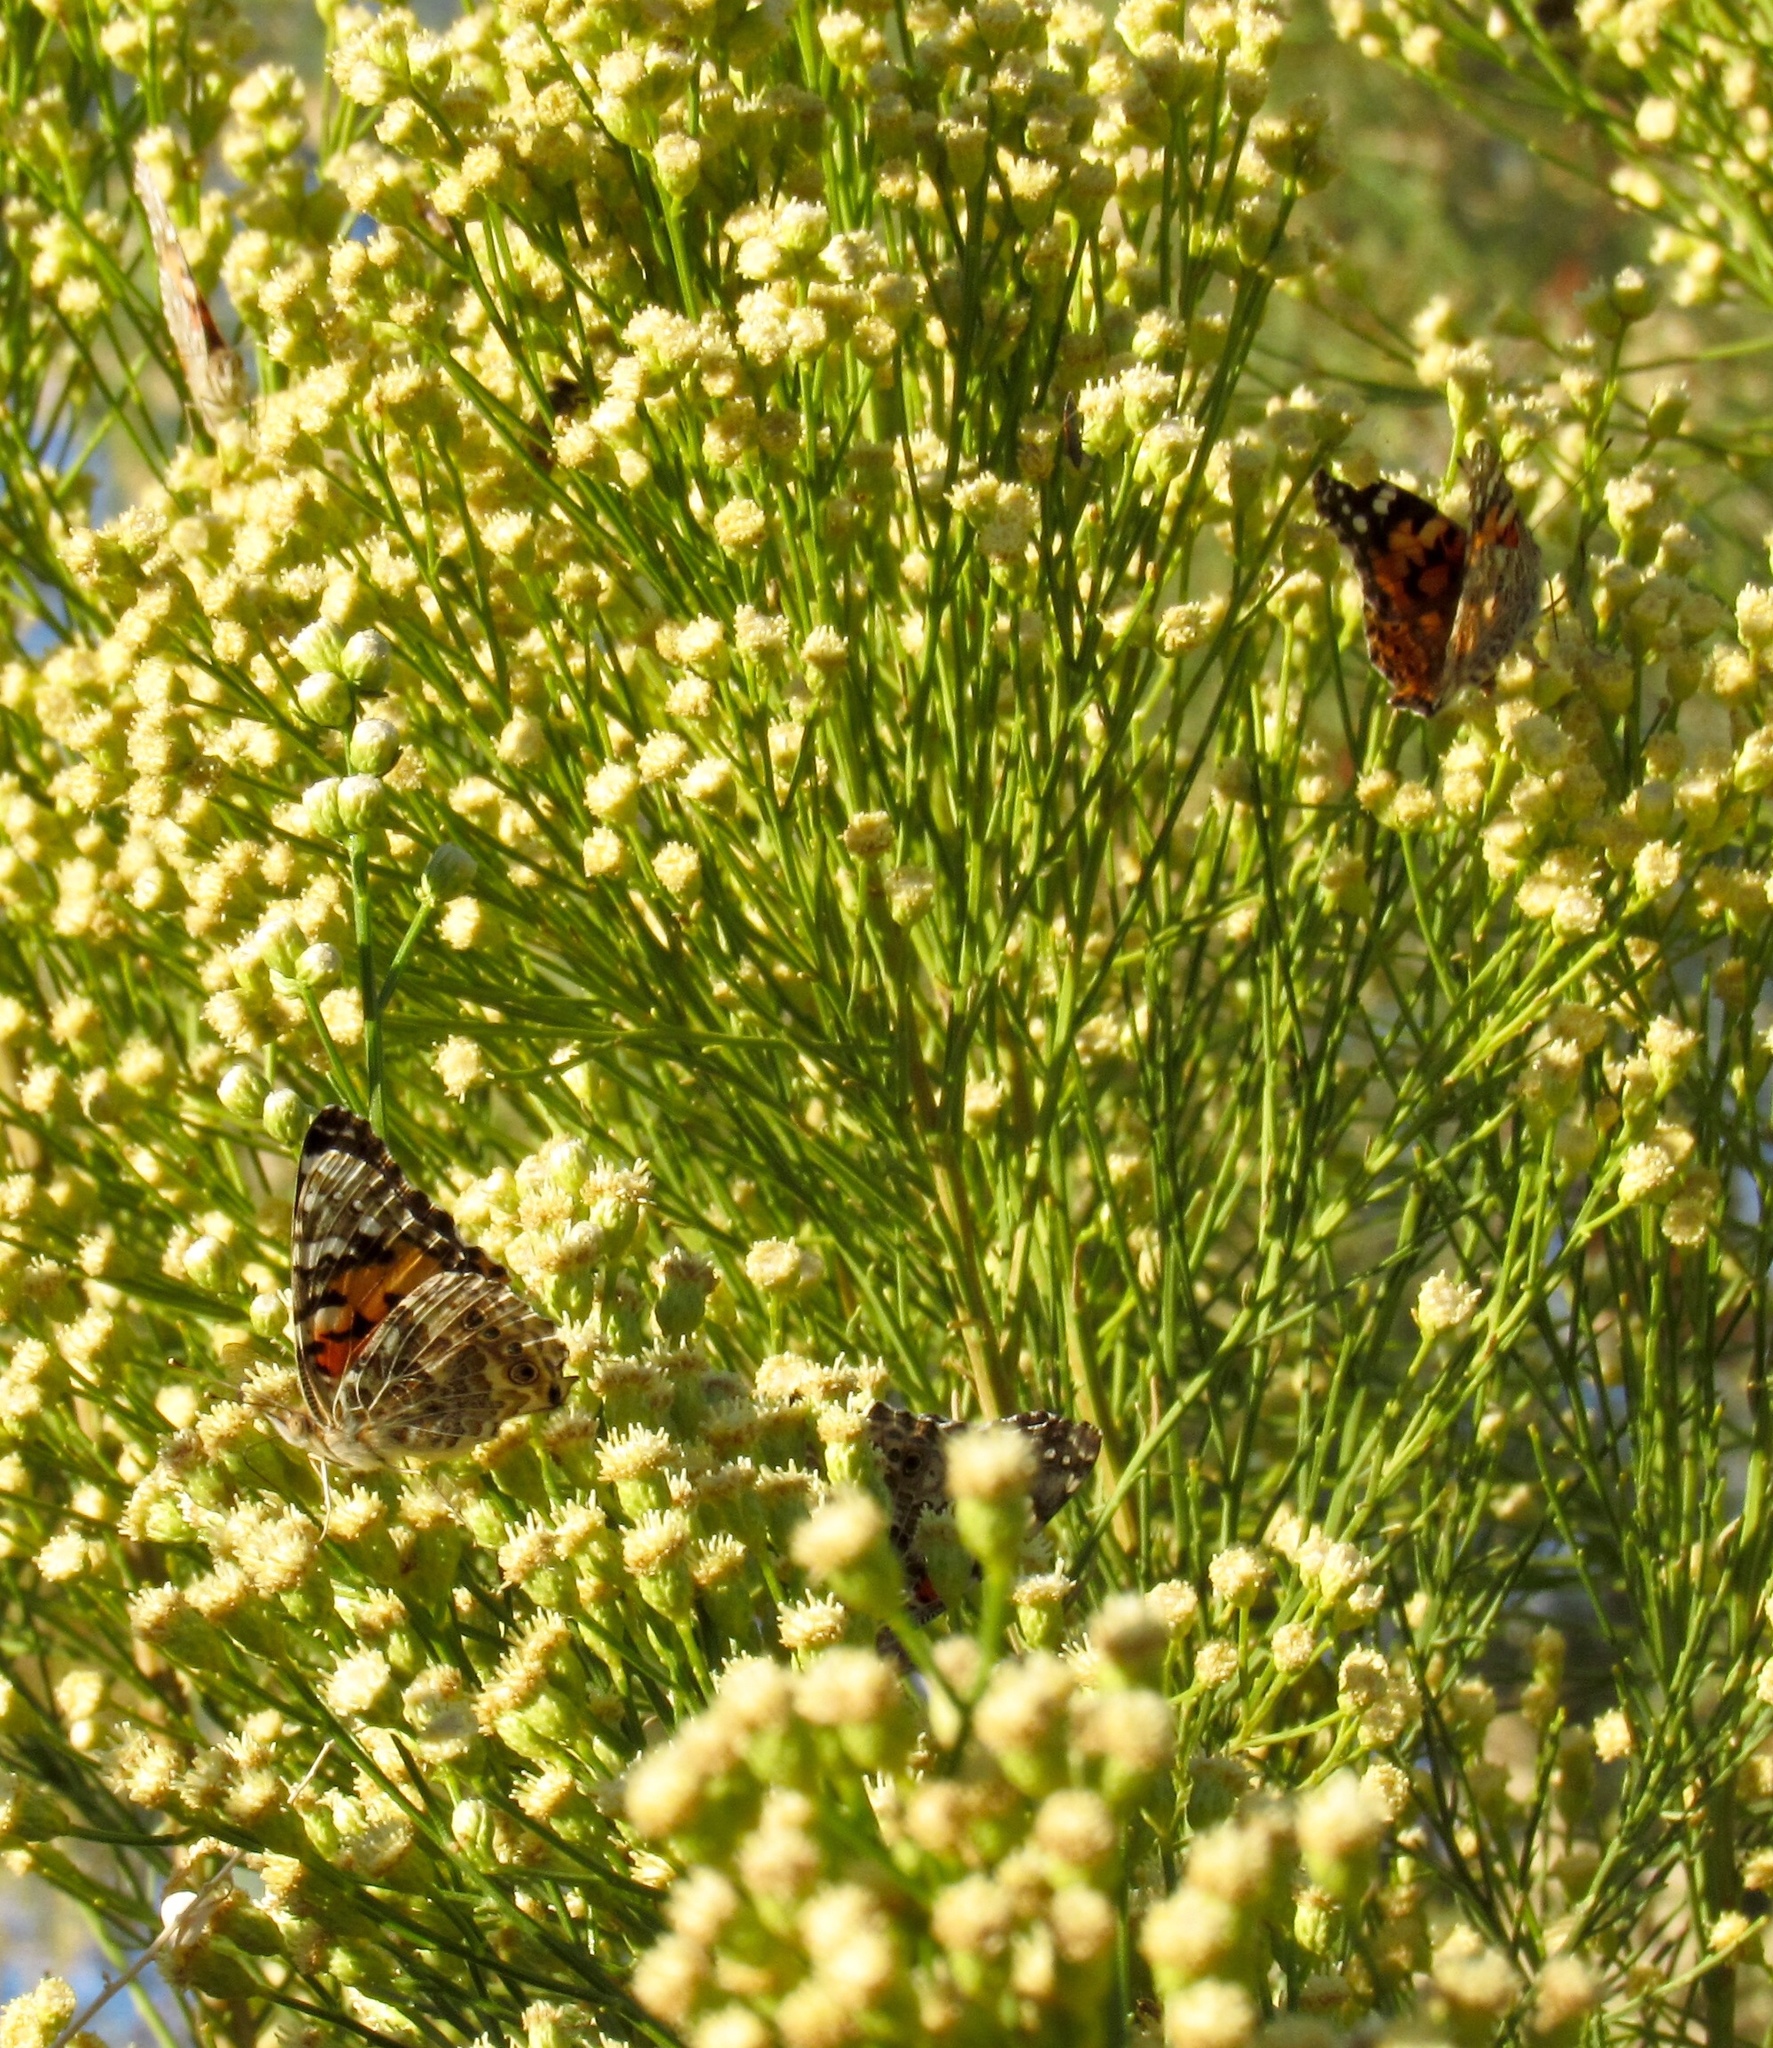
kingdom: Animalia
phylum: Arthropoda
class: Insecta
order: Lepidoptera
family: Nymphalidae
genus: Vanessa
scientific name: Vanessa cardui
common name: Painted lady
